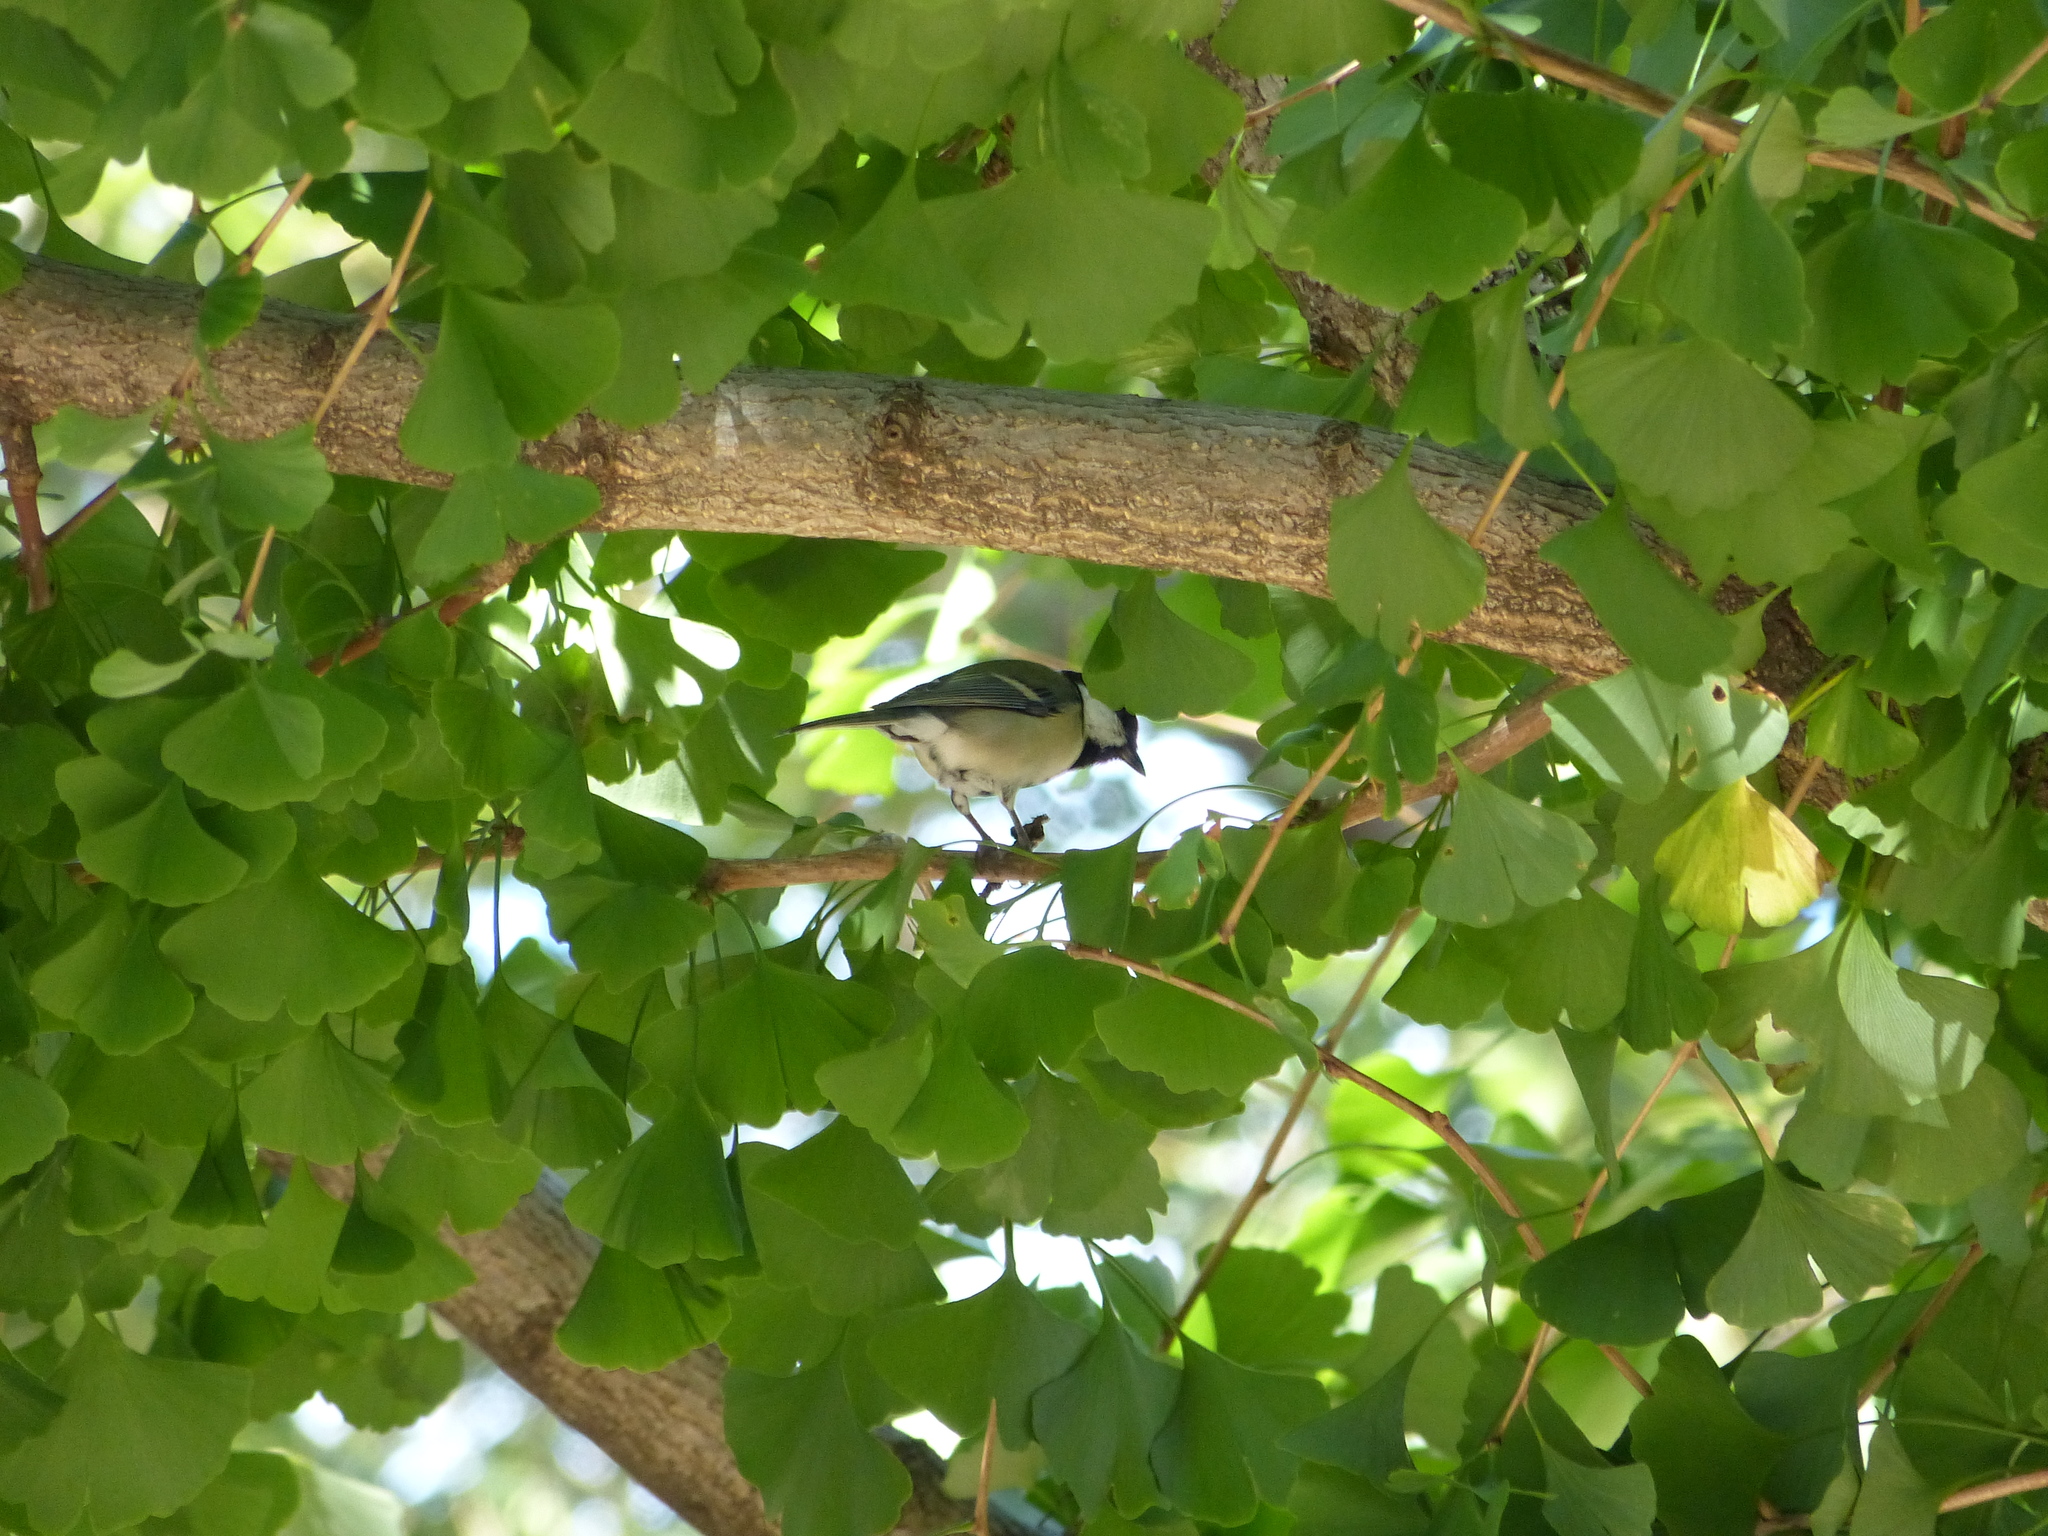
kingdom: Animalia
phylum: Chordata
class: Aves
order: Passeriformes
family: Paridae
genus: Parus
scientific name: Parus minor
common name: Japanese tit
